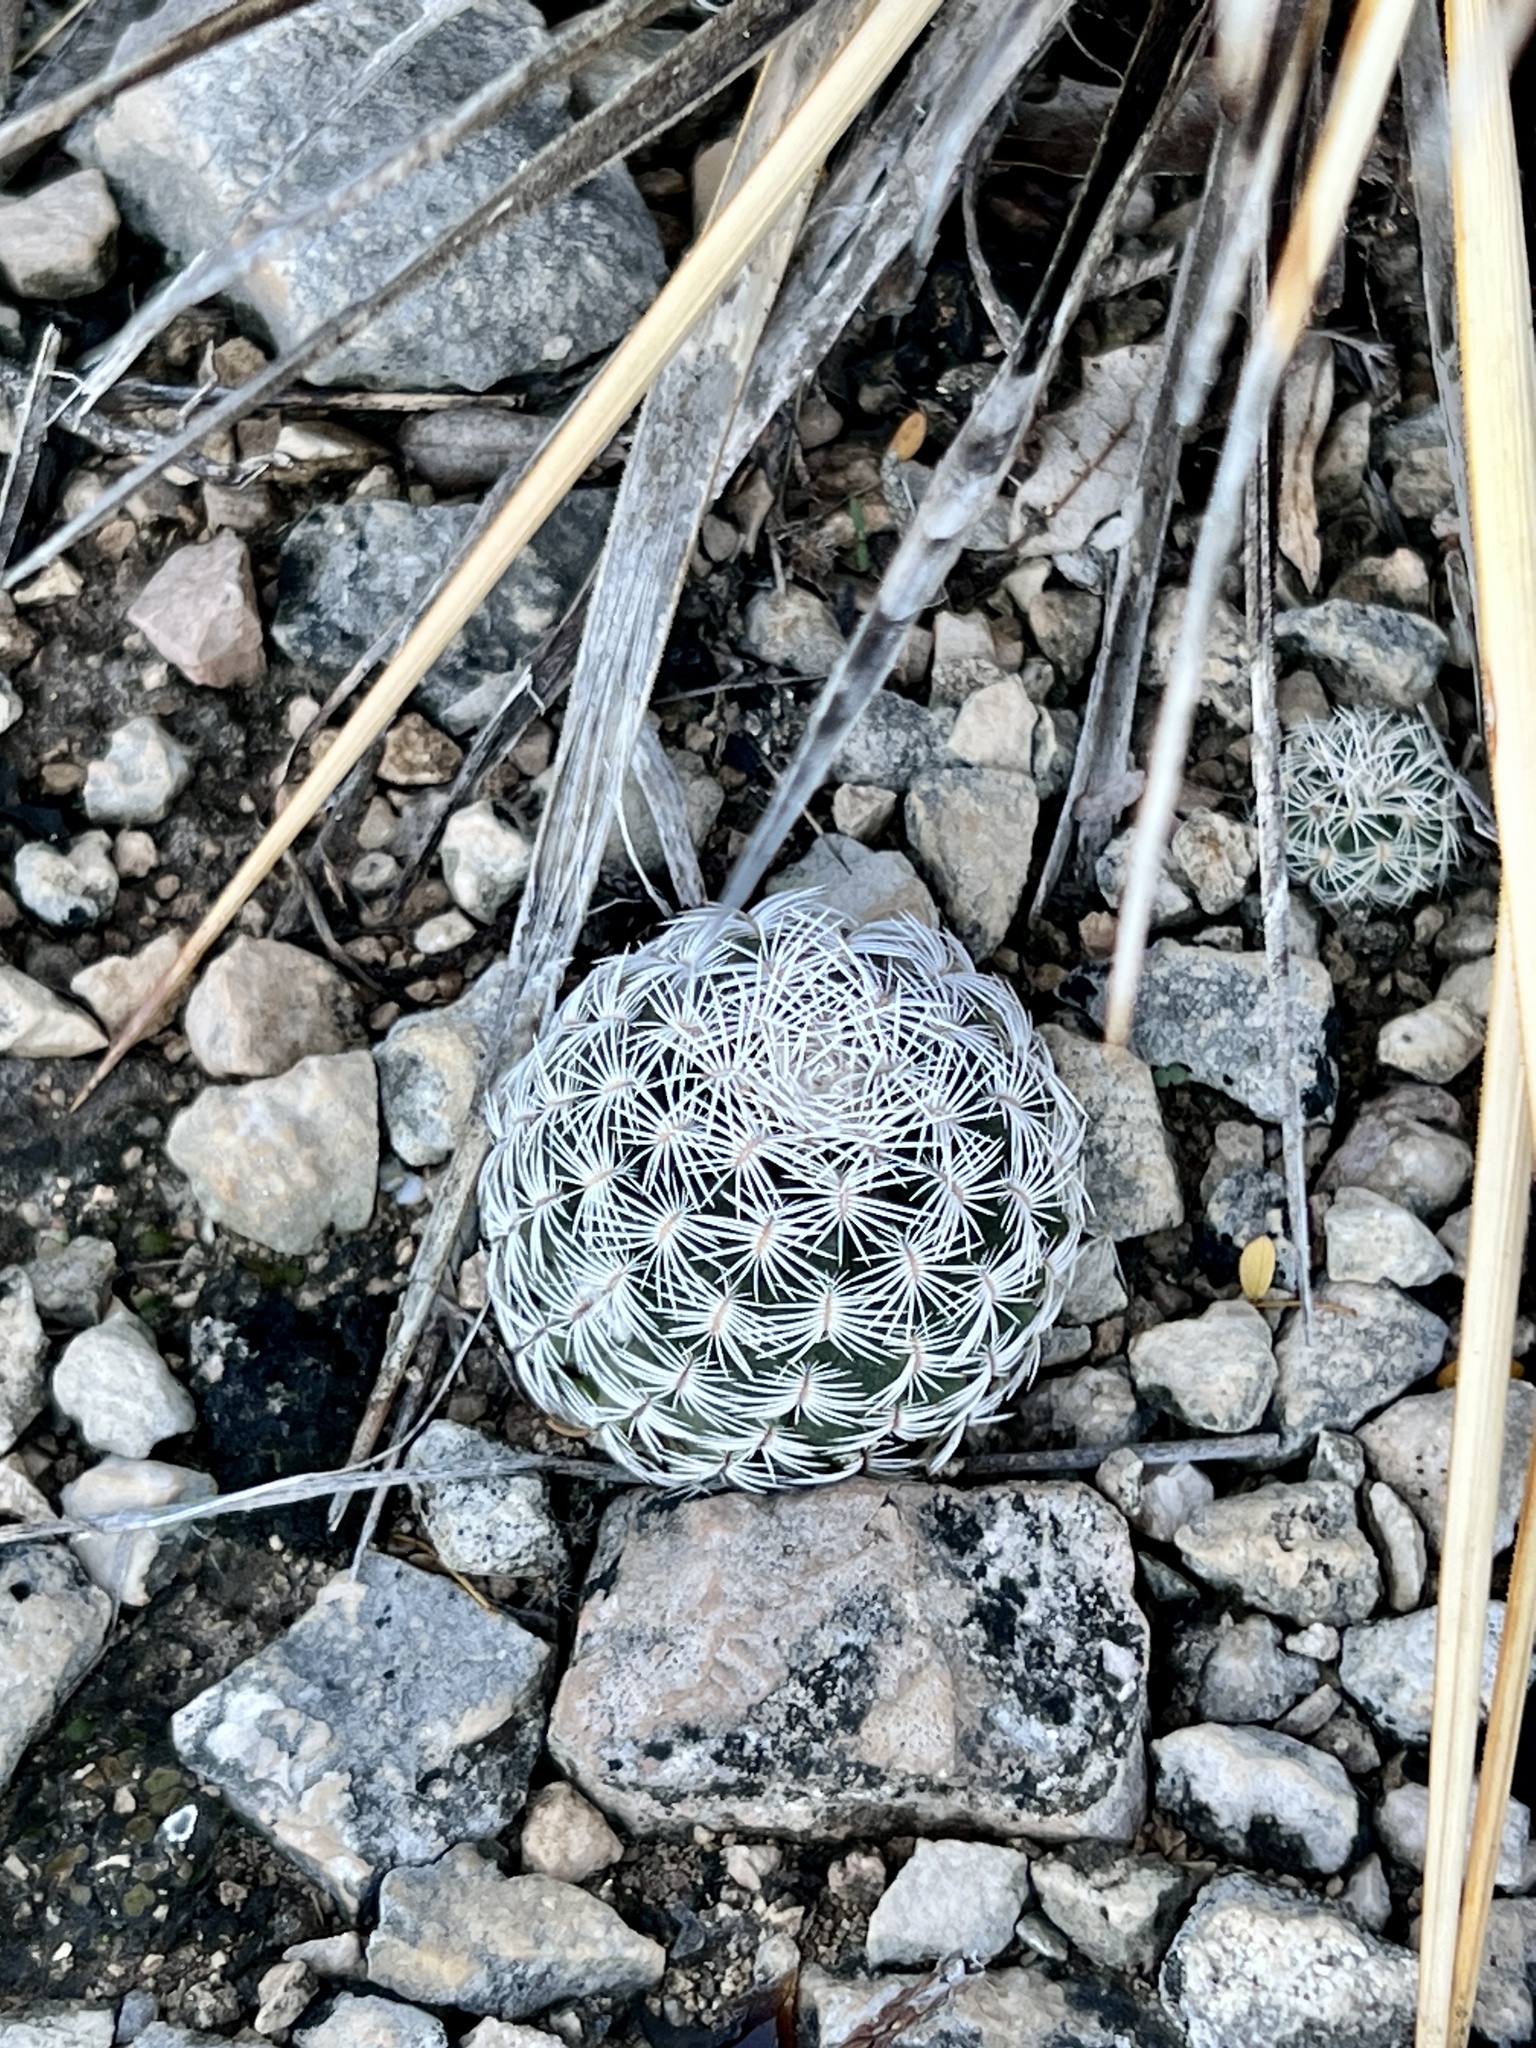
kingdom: Plantae
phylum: Tracheophyta
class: Magnoliopsida
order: Caryophyllales
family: Cactaceae
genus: Echinocereus
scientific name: Echinocereus reichenbachii
